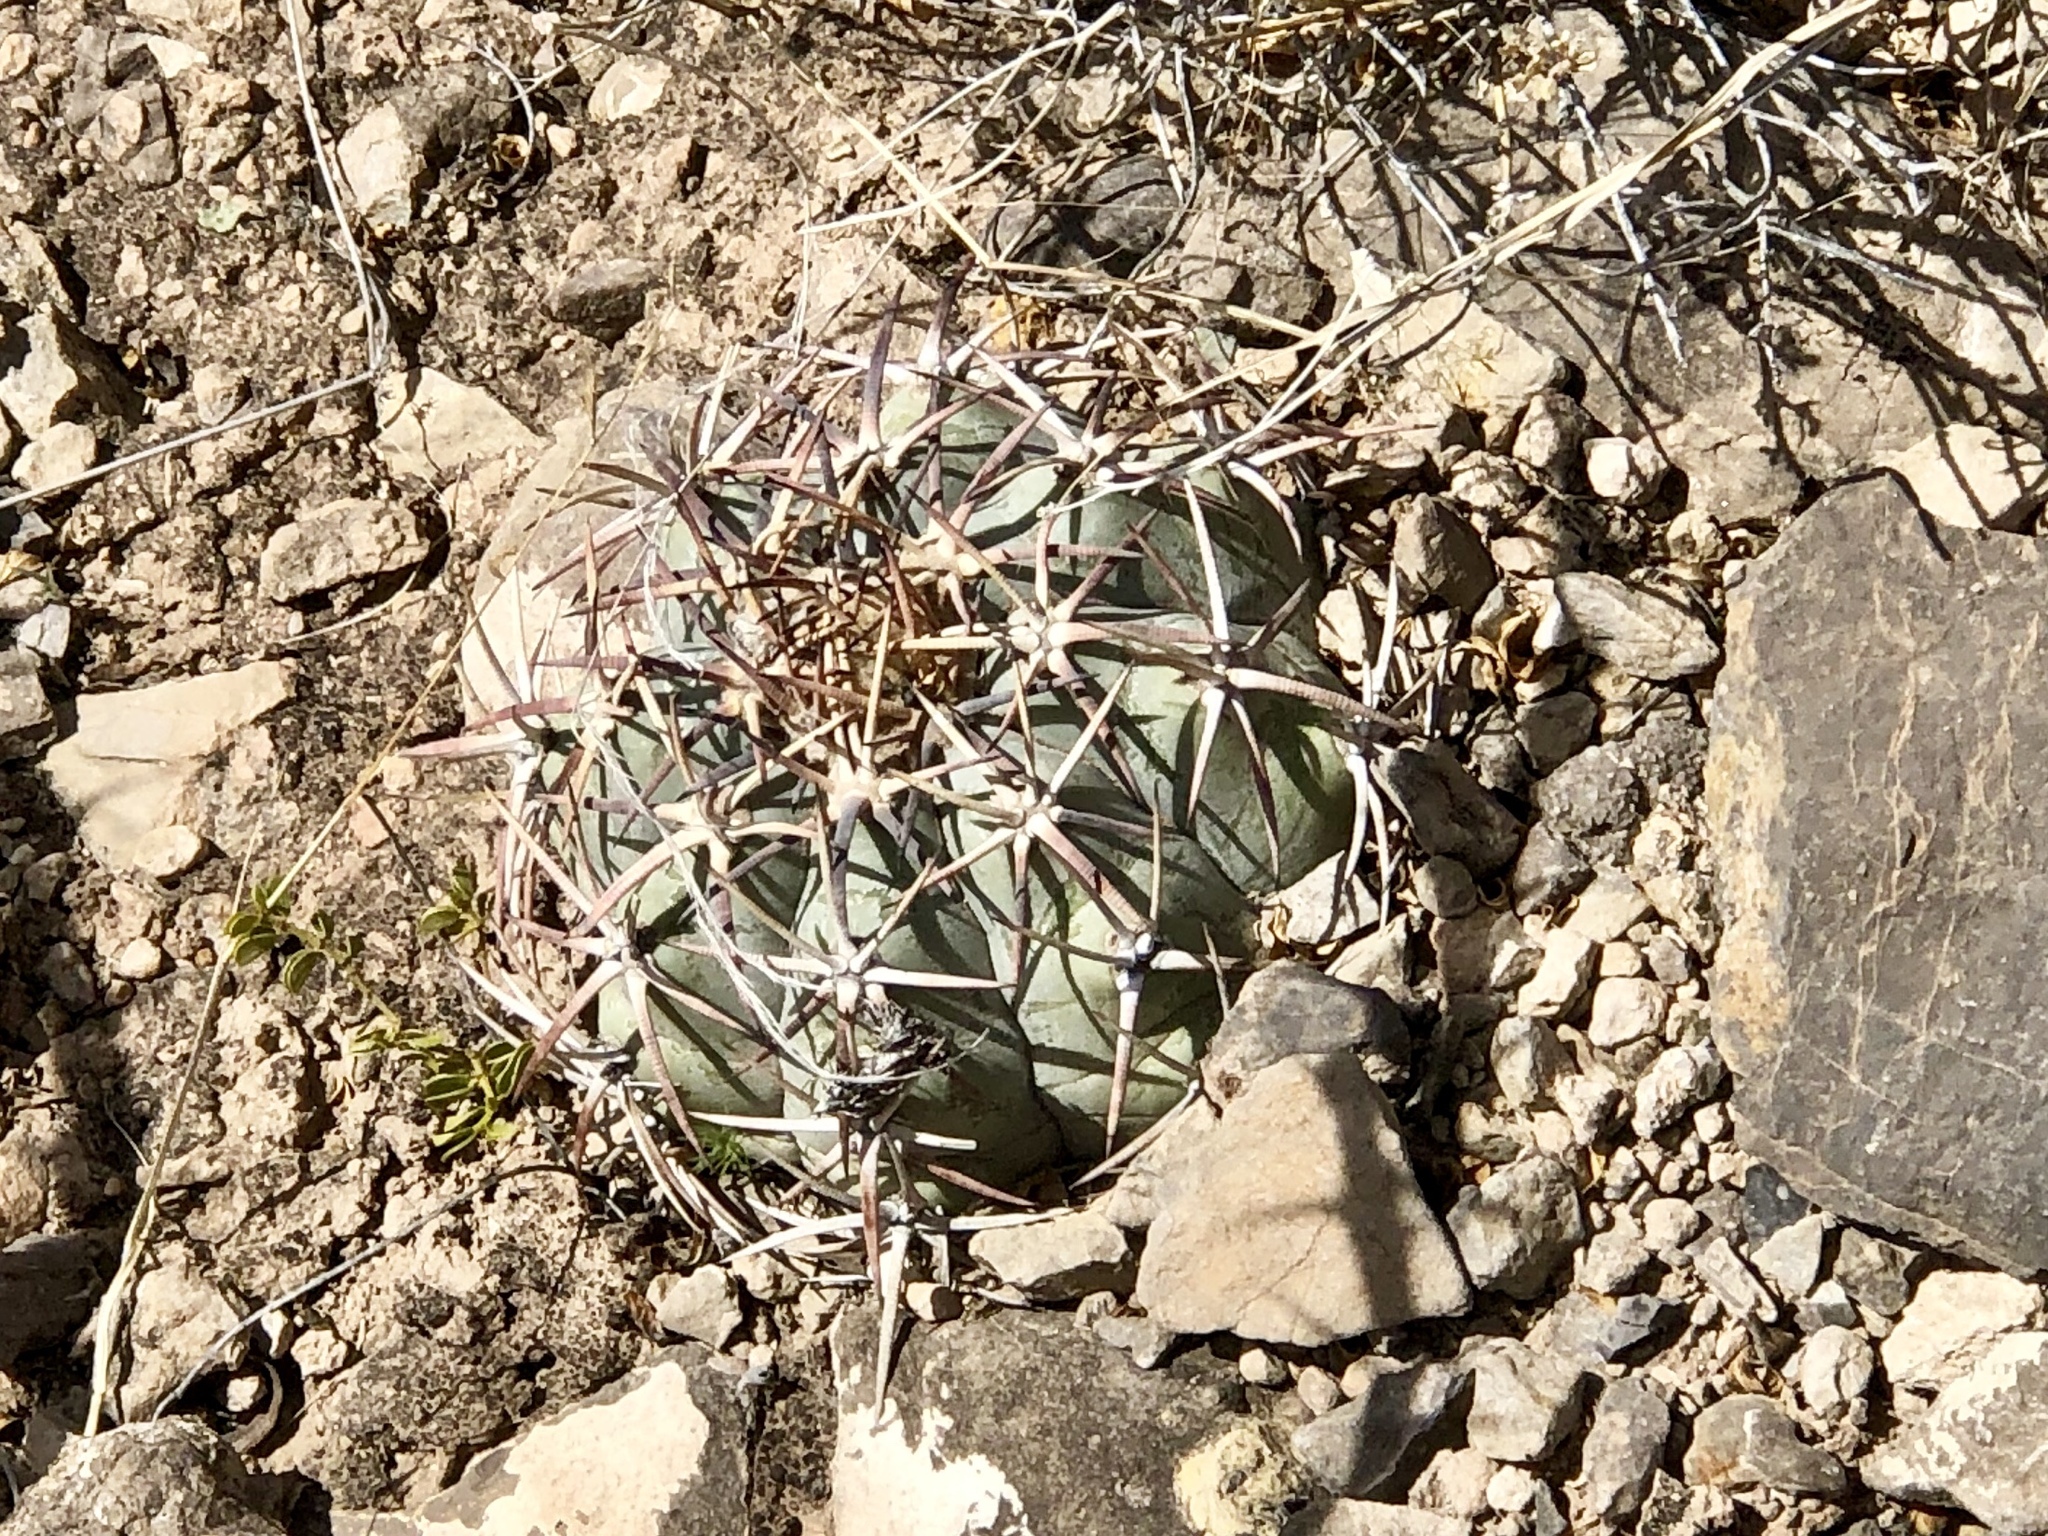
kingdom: Plantae
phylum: Tracheophyta
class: Magnoliopsida
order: Caryophyllales
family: Cactaceae
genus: Echinocactus
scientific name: Echinocactus horizonthalonius
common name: Devilshead
